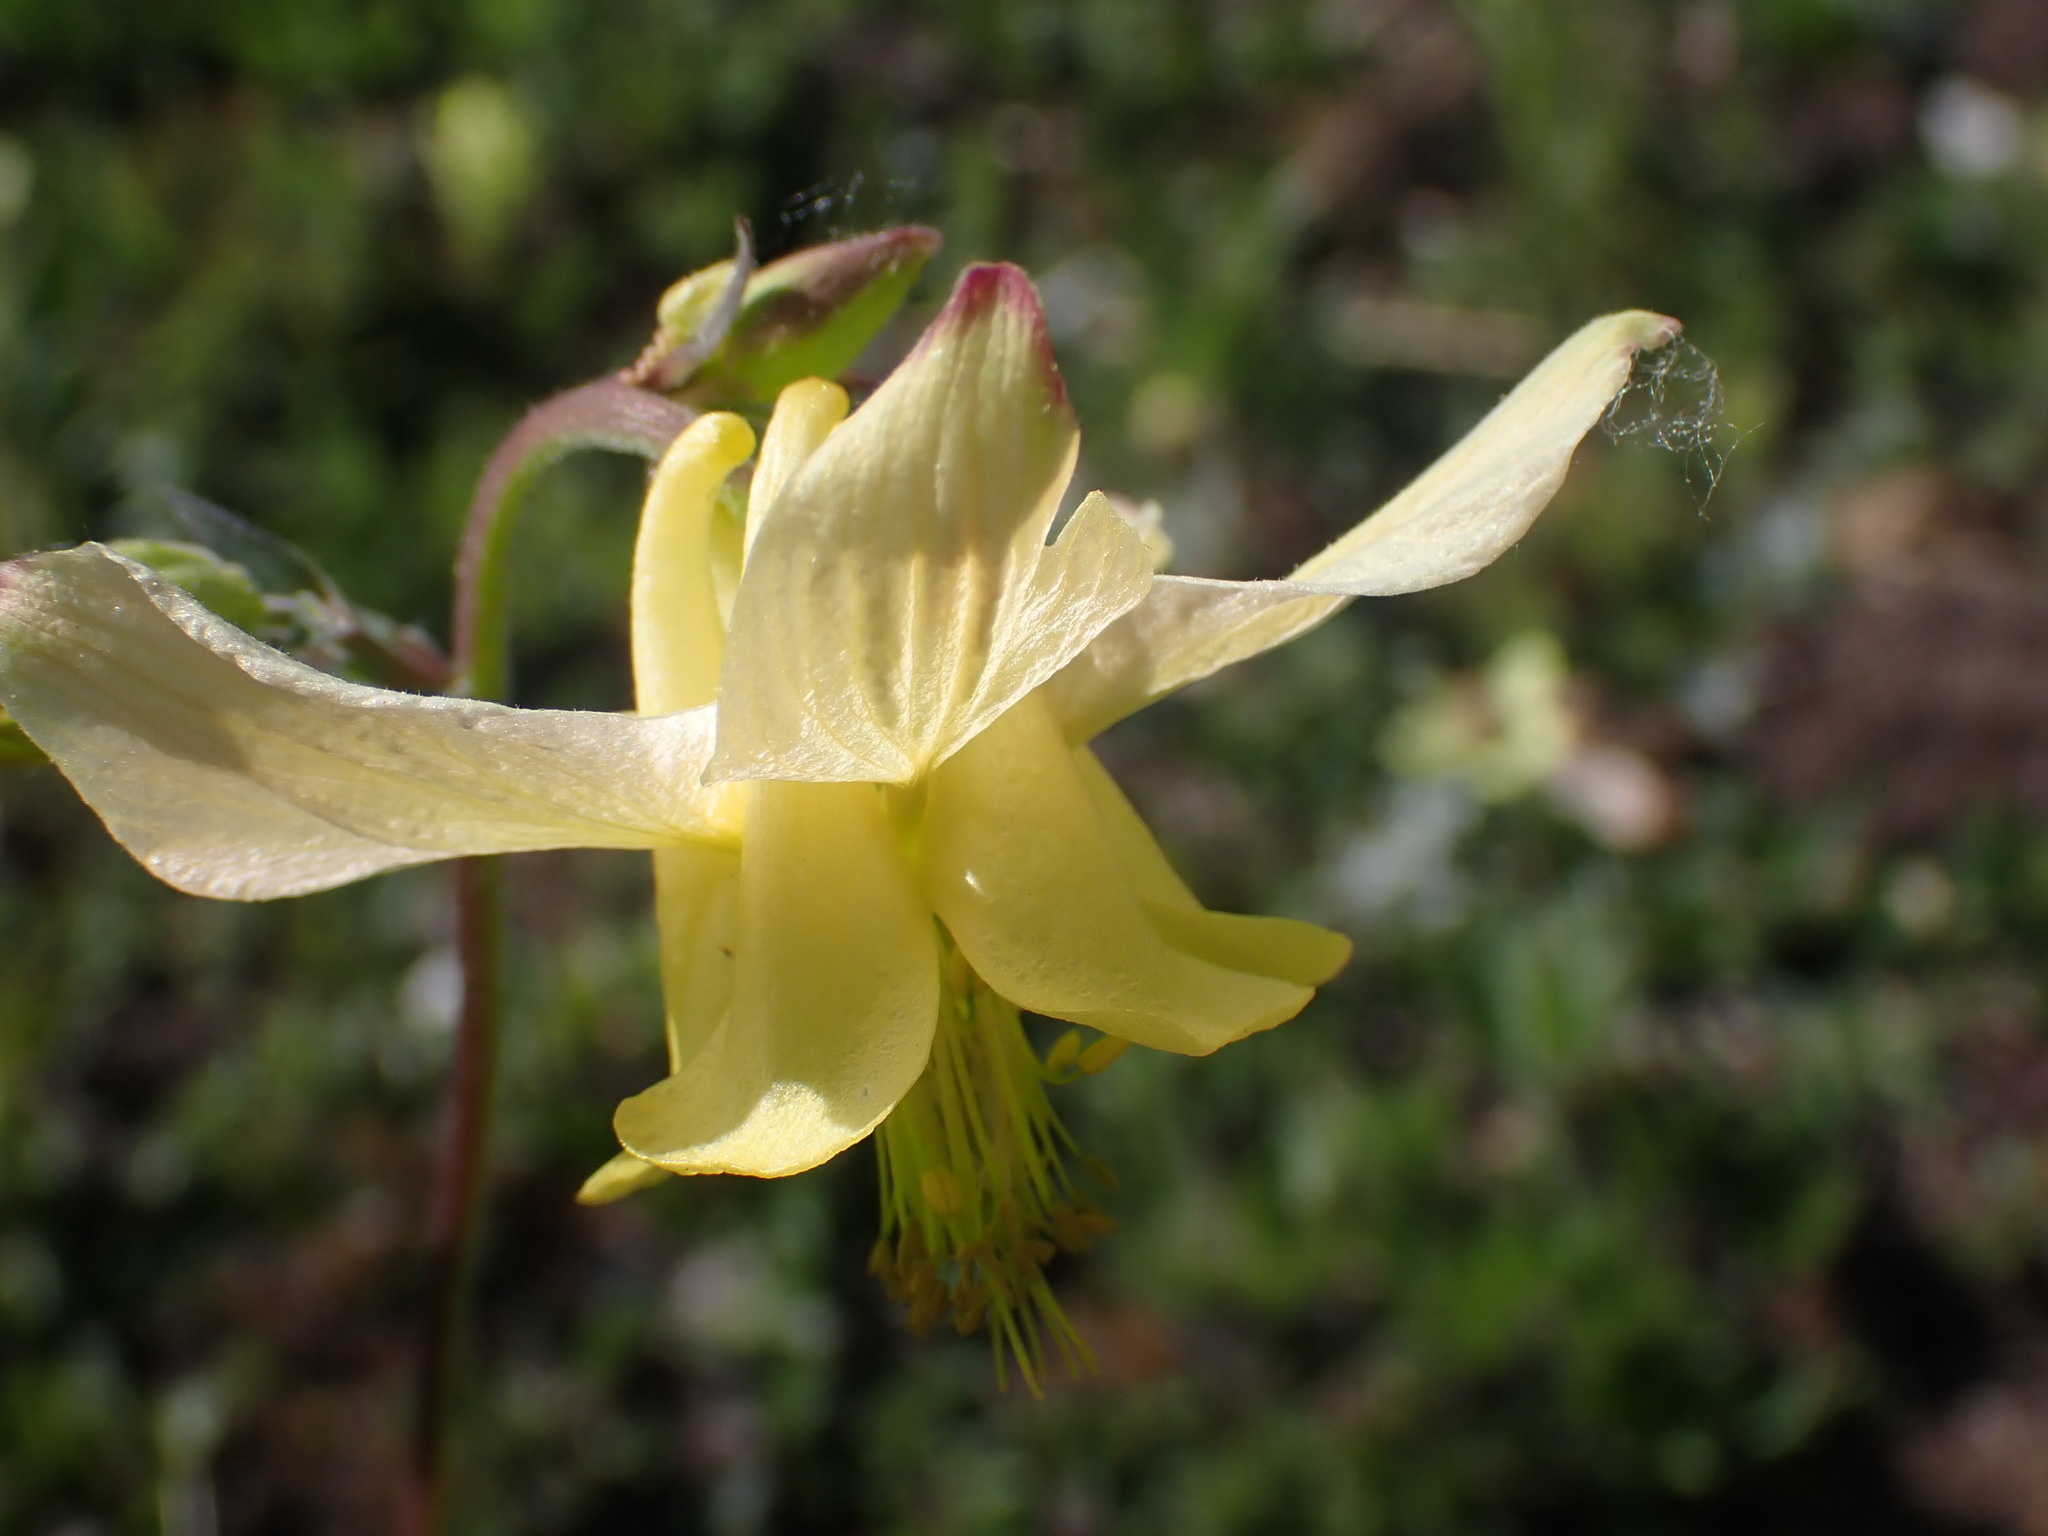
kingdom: Plantae
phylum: Tracheophyta
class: Magnoliopsida
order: Ranunculales
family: Ranunculaceae
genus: Aquilegia
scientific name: Aquilegia flavescens
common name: Yellow columbine
